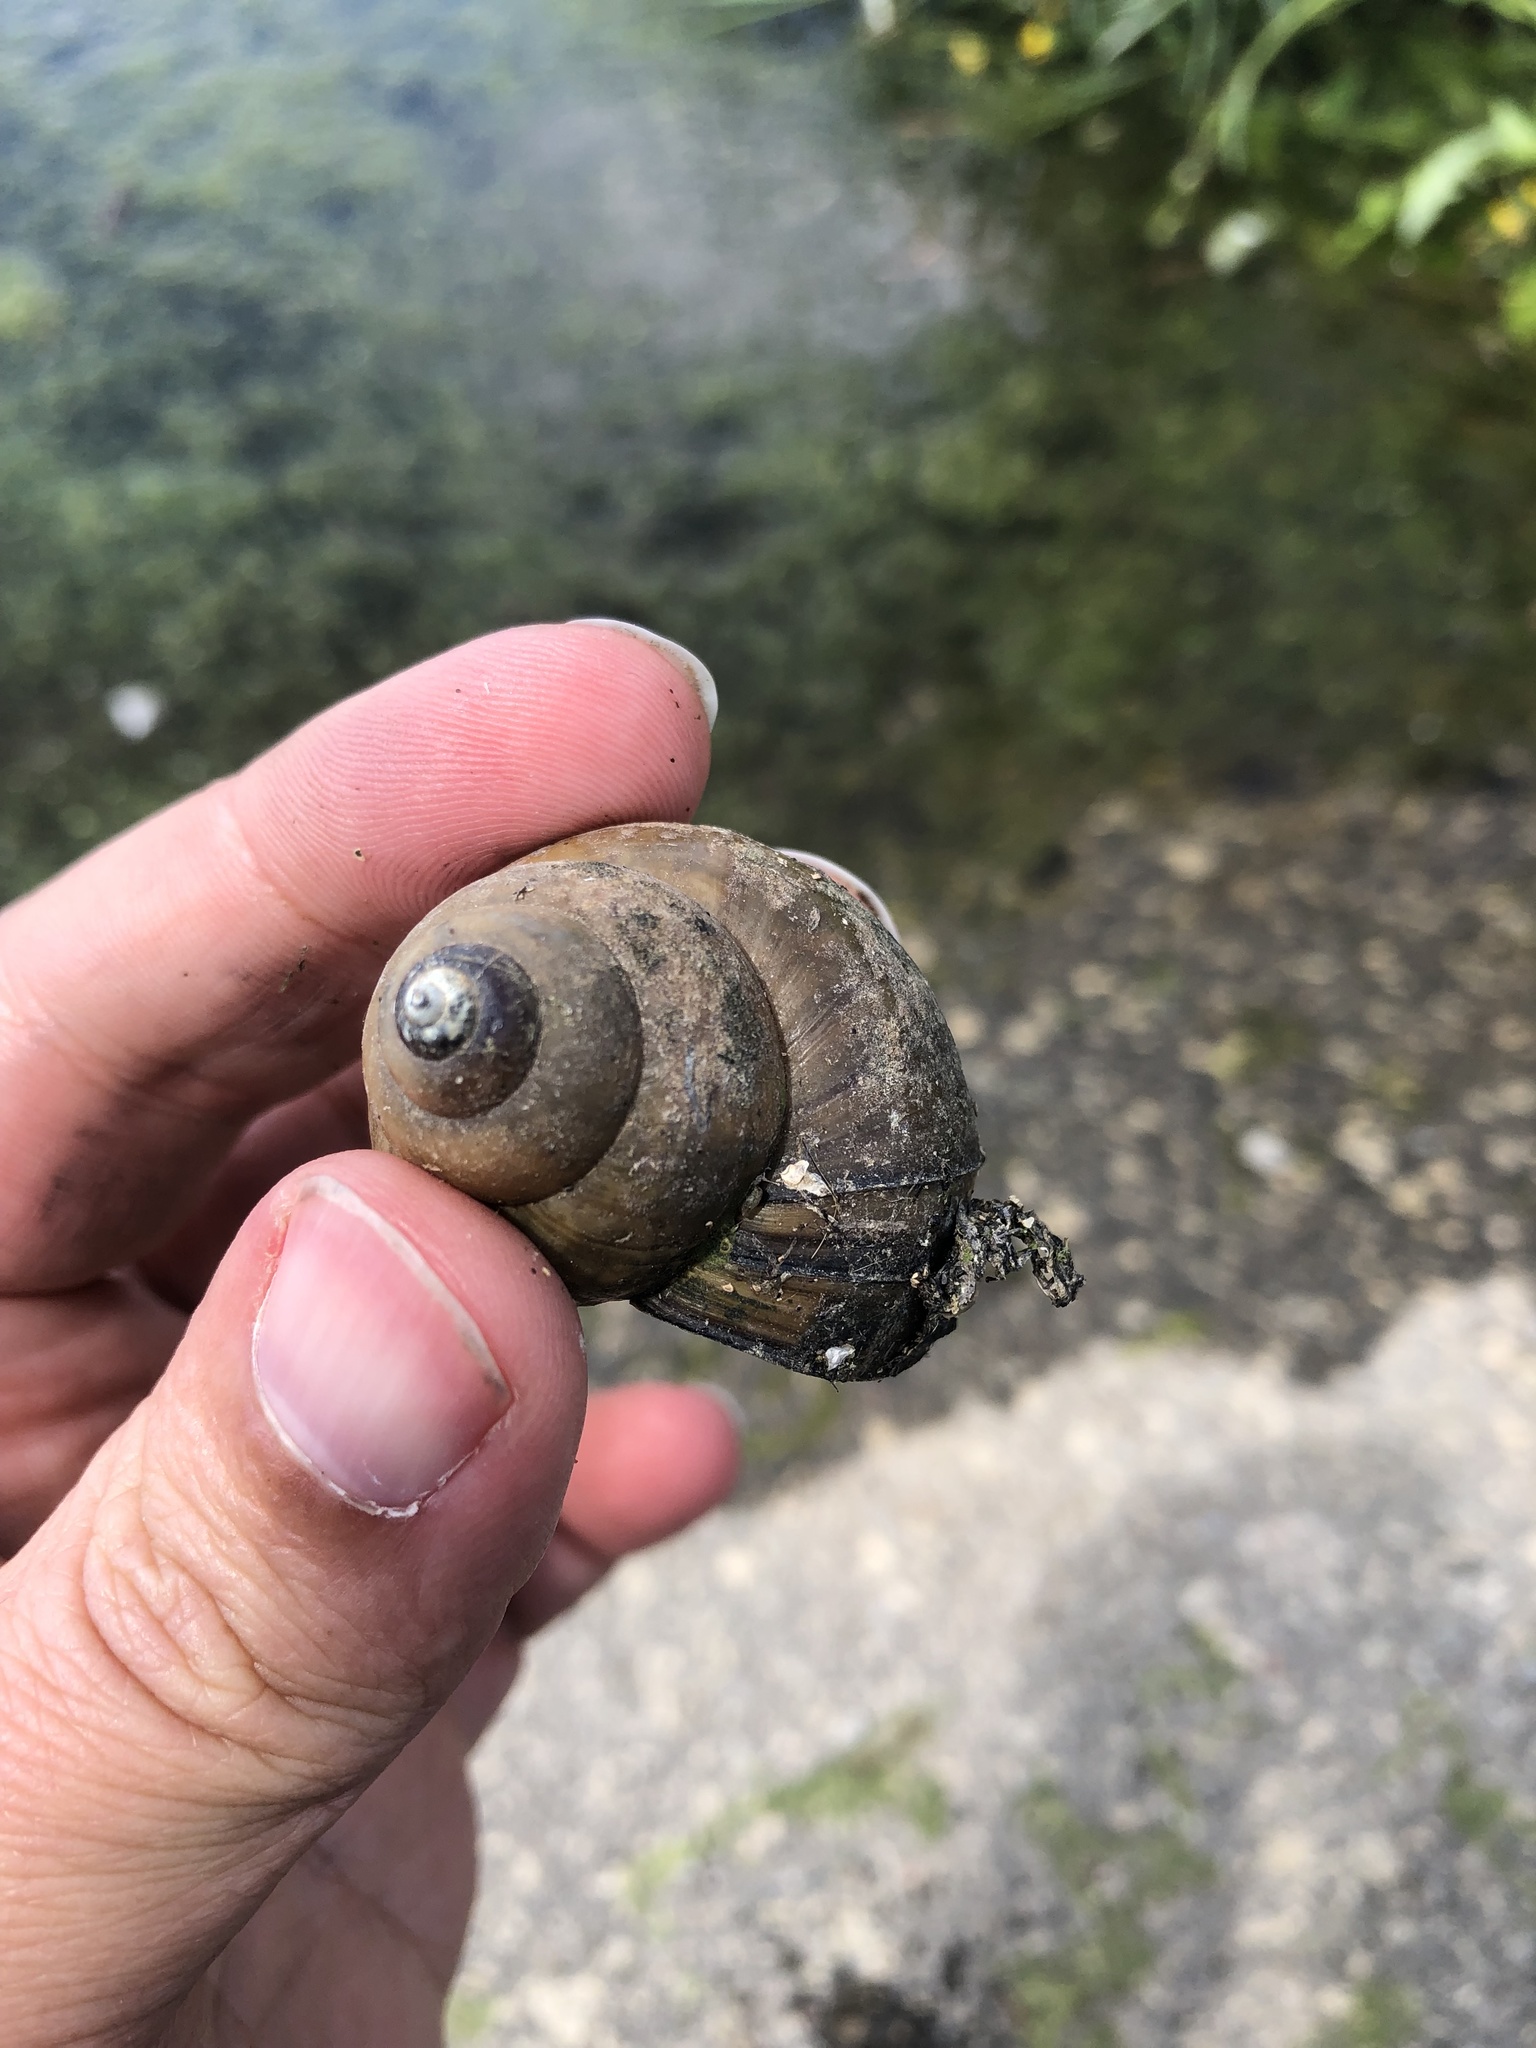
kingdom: Animalia
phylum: Mollusca
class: Gastropoda
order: Architaenioglossa
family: Viviparidae
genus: Cipangopaludina
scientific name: Cipangopaludina chinensis
